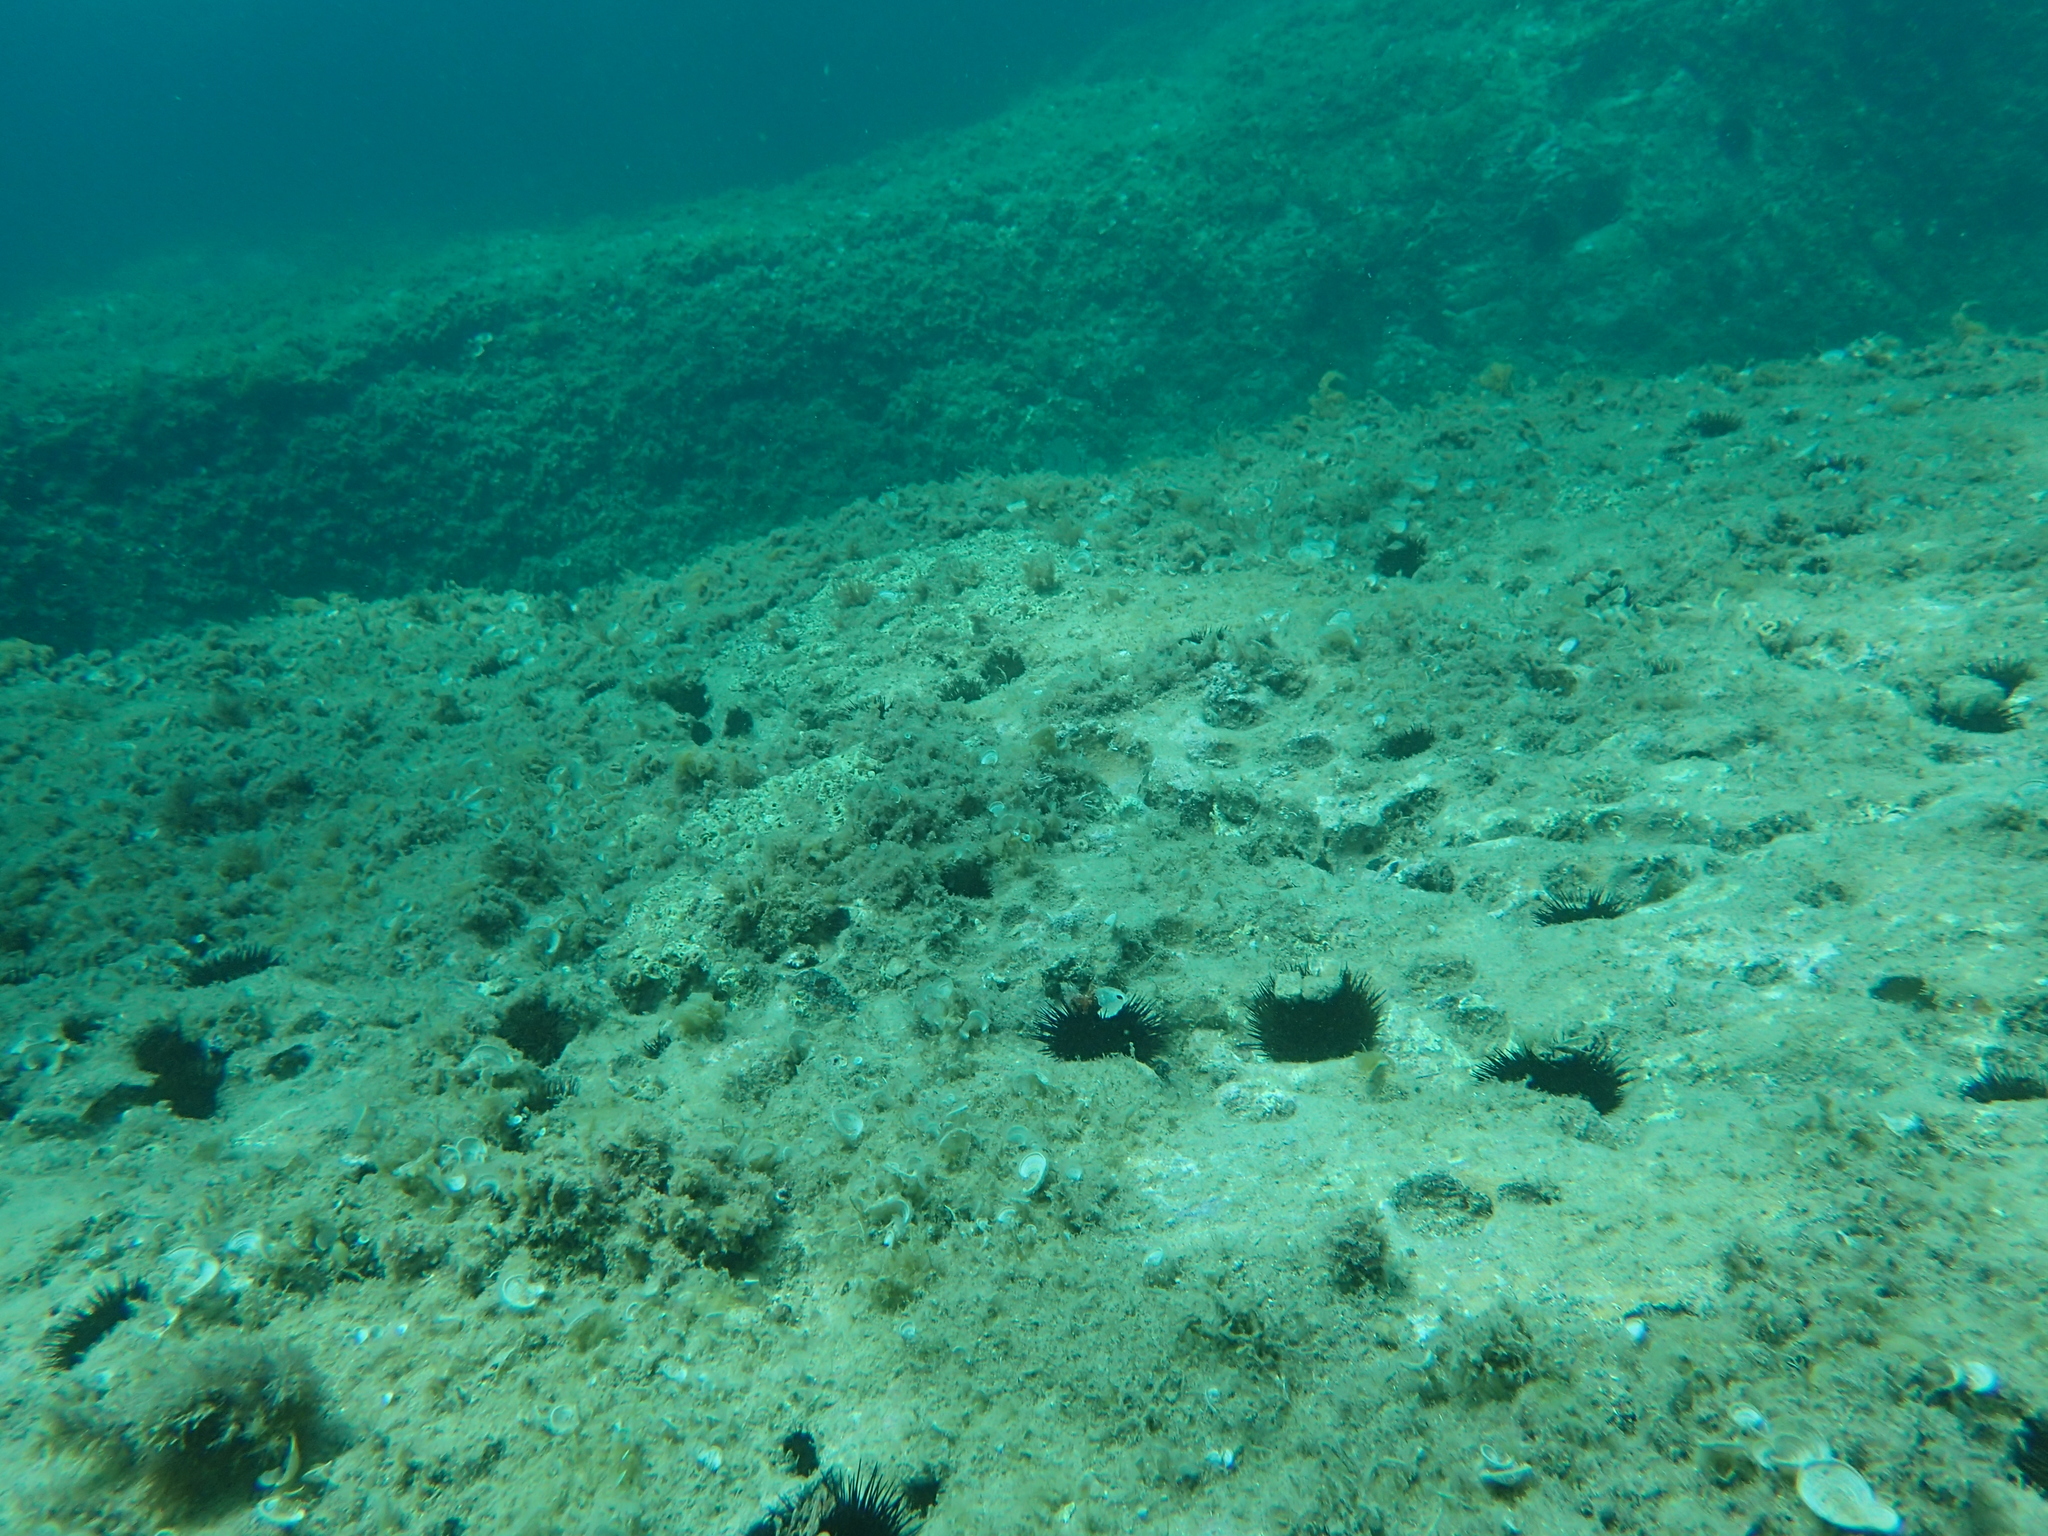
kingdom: Animalia
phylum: Echinodermata
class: Echinoidea
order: Arbacioida
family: Arbaciidae
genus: Arbacia
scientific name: Arbacia lixula
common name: Black sea urchin
